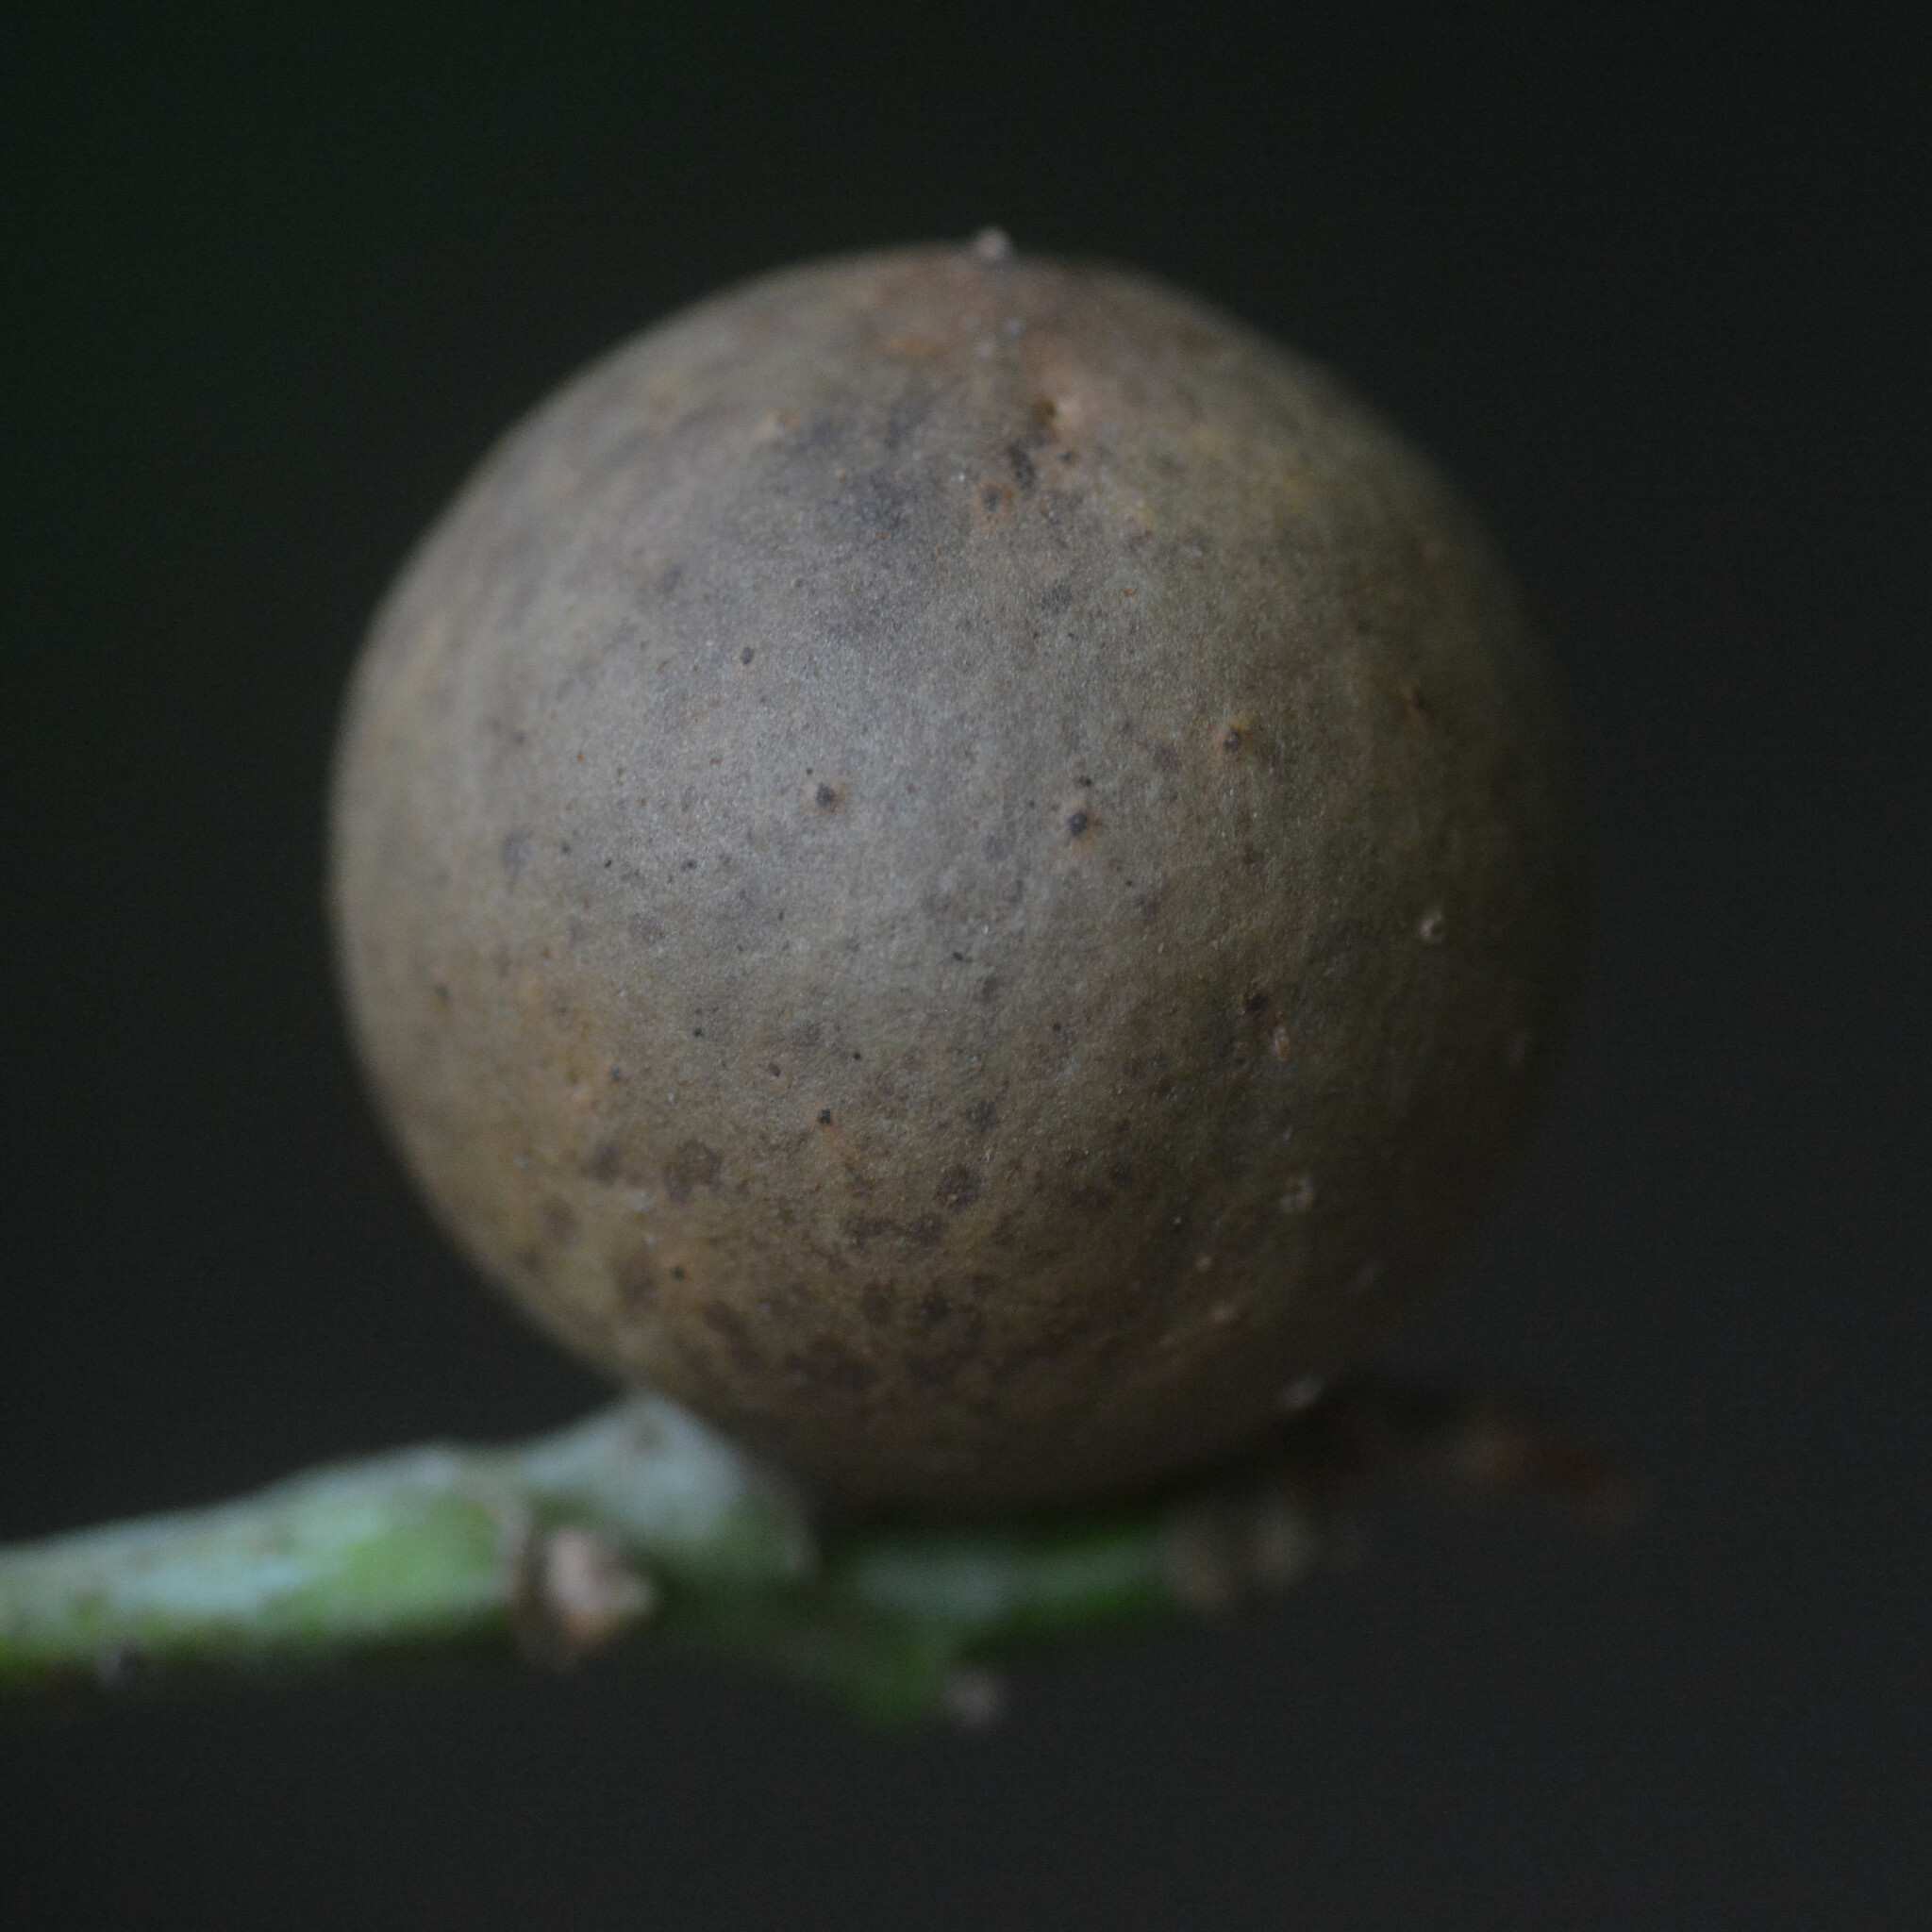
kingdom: Animalia
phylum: Arthropoda
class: Insecta
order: Hymenoptera
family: Cynipidae
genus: Andricus
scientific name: Andricus kollari
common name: Marble gall
